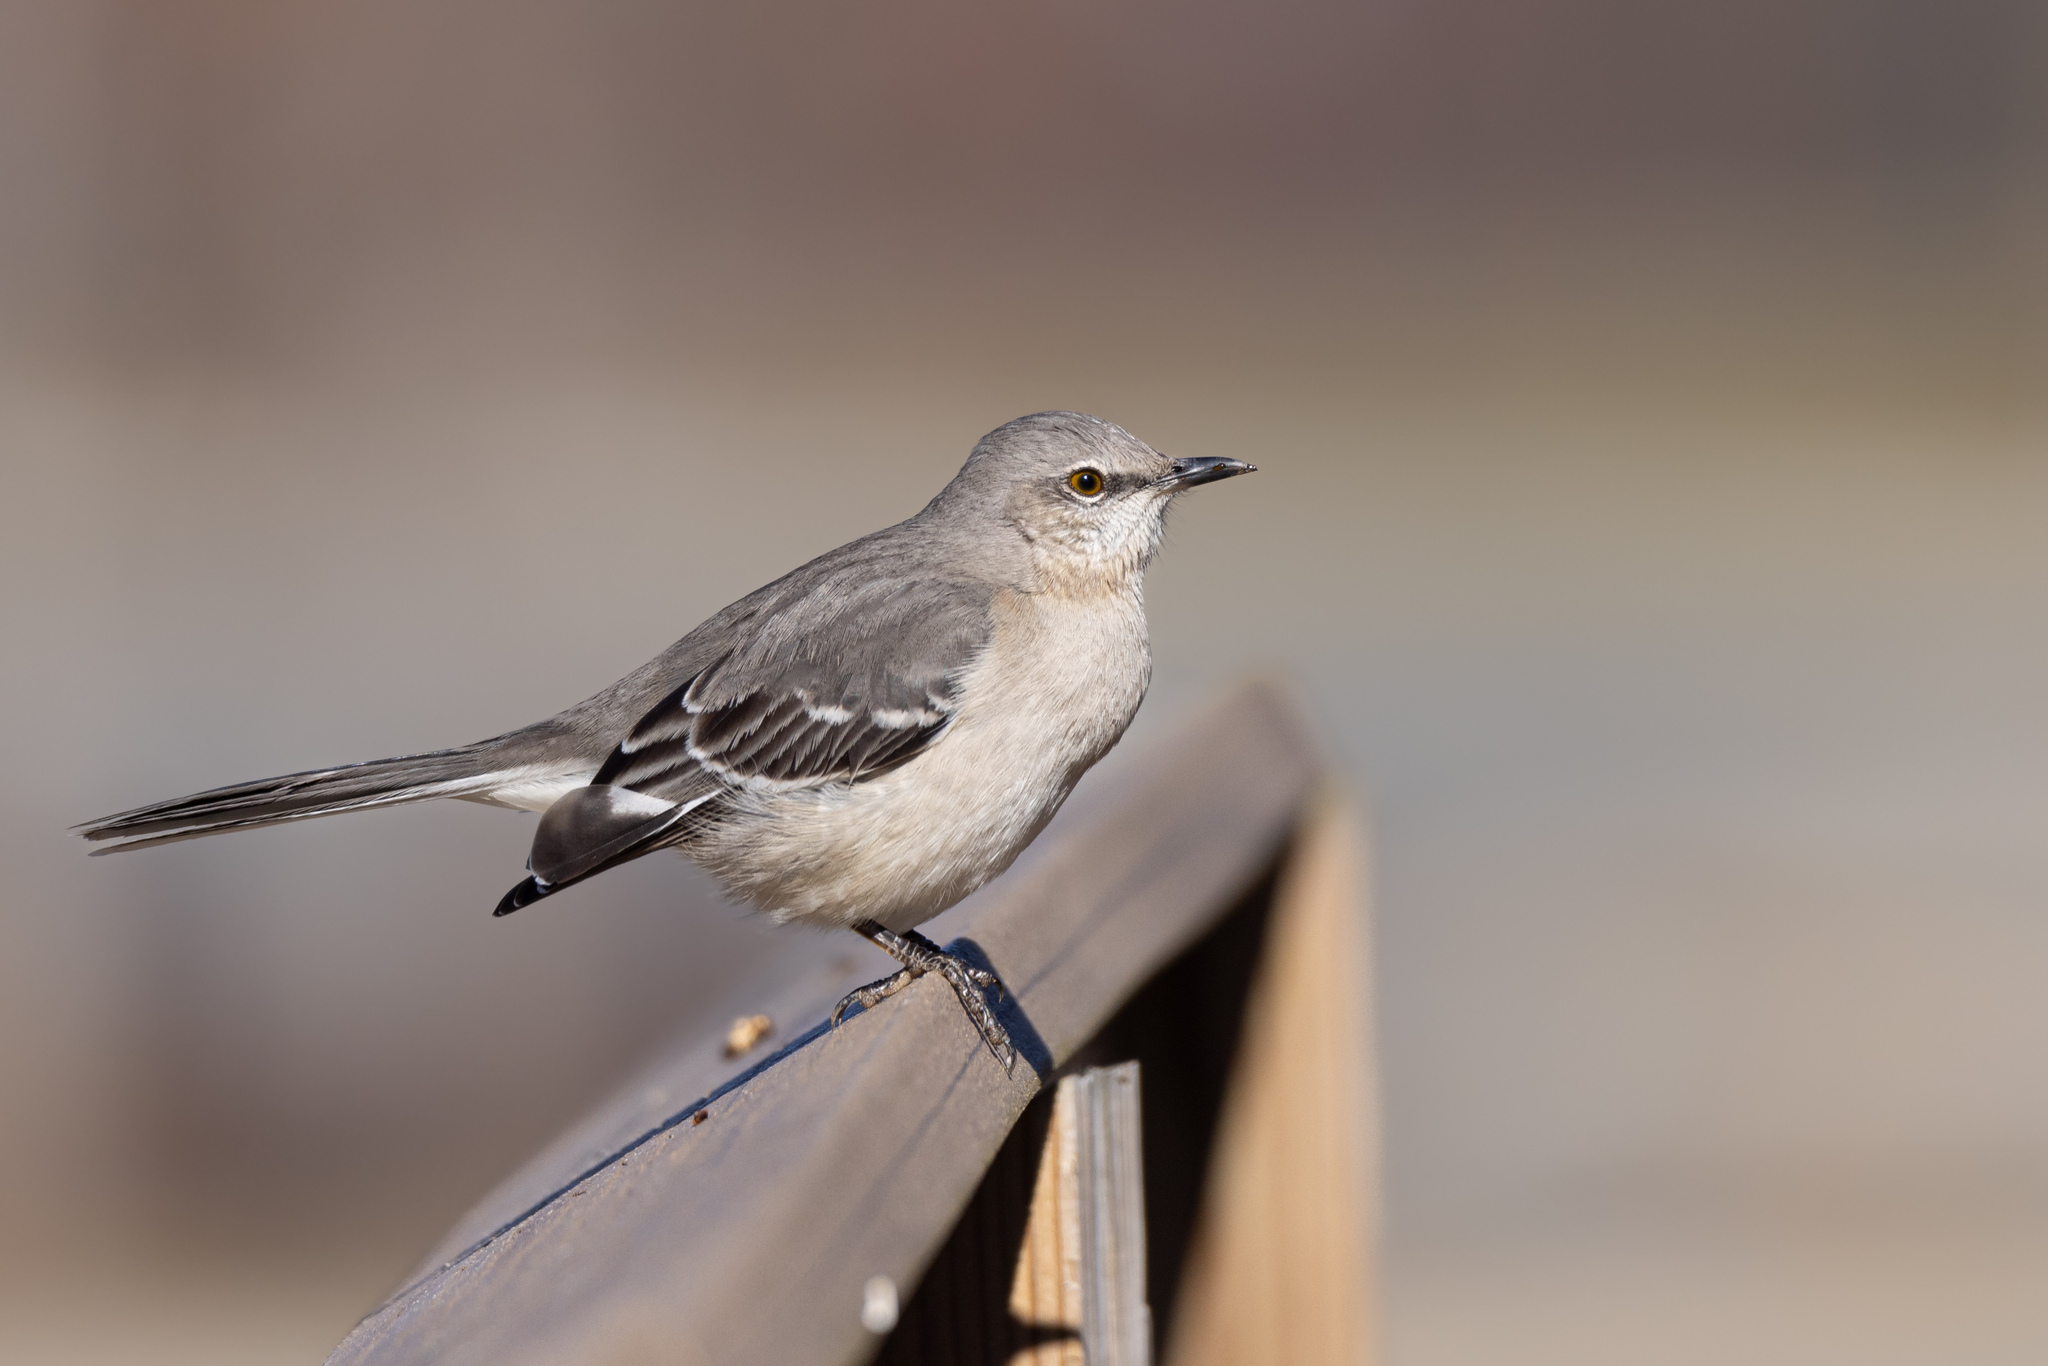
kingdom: Animalia
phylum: Chordata
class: Aves
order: Passeriformes
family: Mimidae
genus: Mimus
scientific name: Mimus polyglottos
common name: Northern mockingbird
